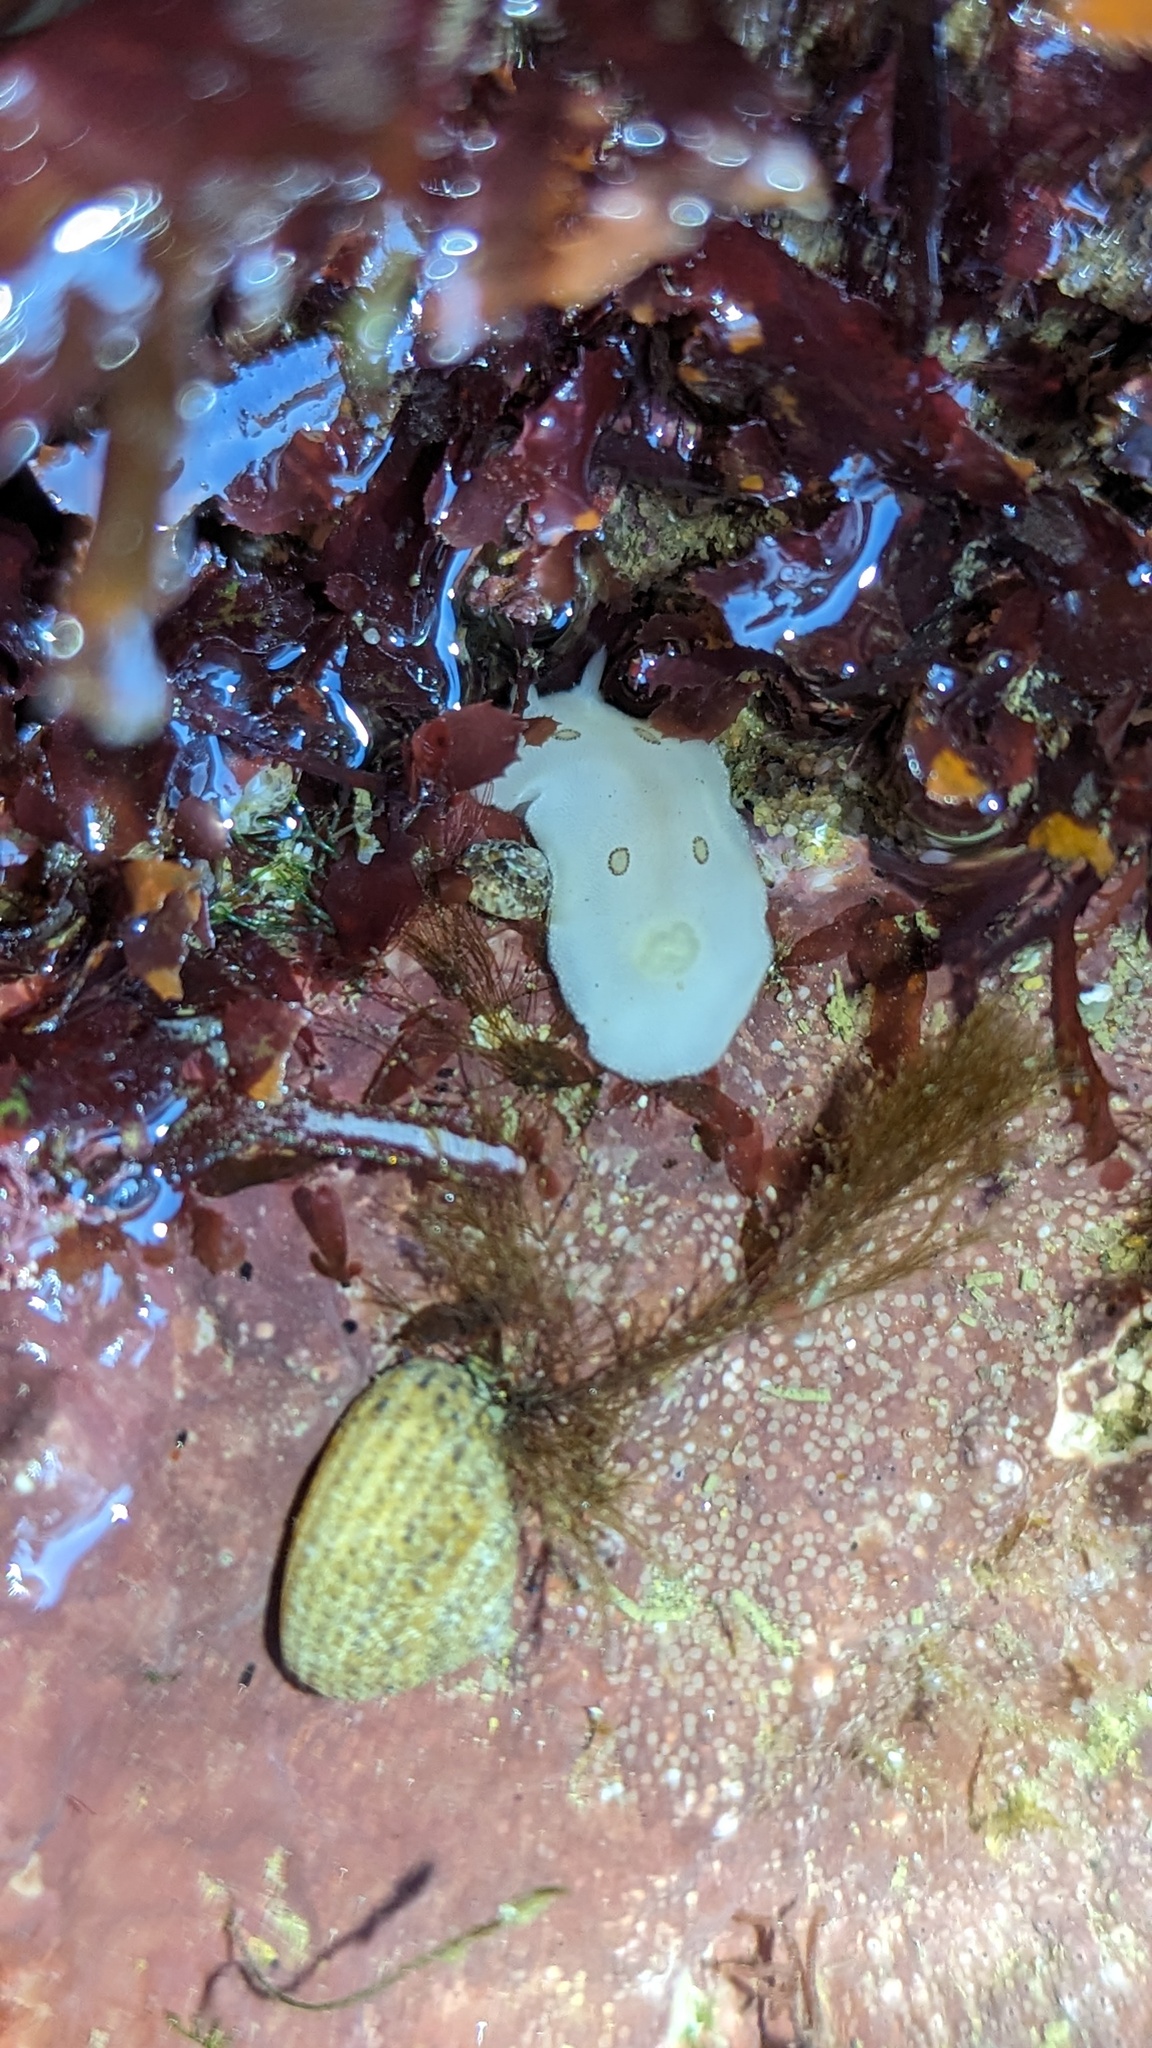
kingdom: Animalia
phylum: Mollusca
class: Gastropoda
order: Nudibranchia
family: Discodorididae
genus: Diaulula
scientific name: Diaulula sandiegensis
